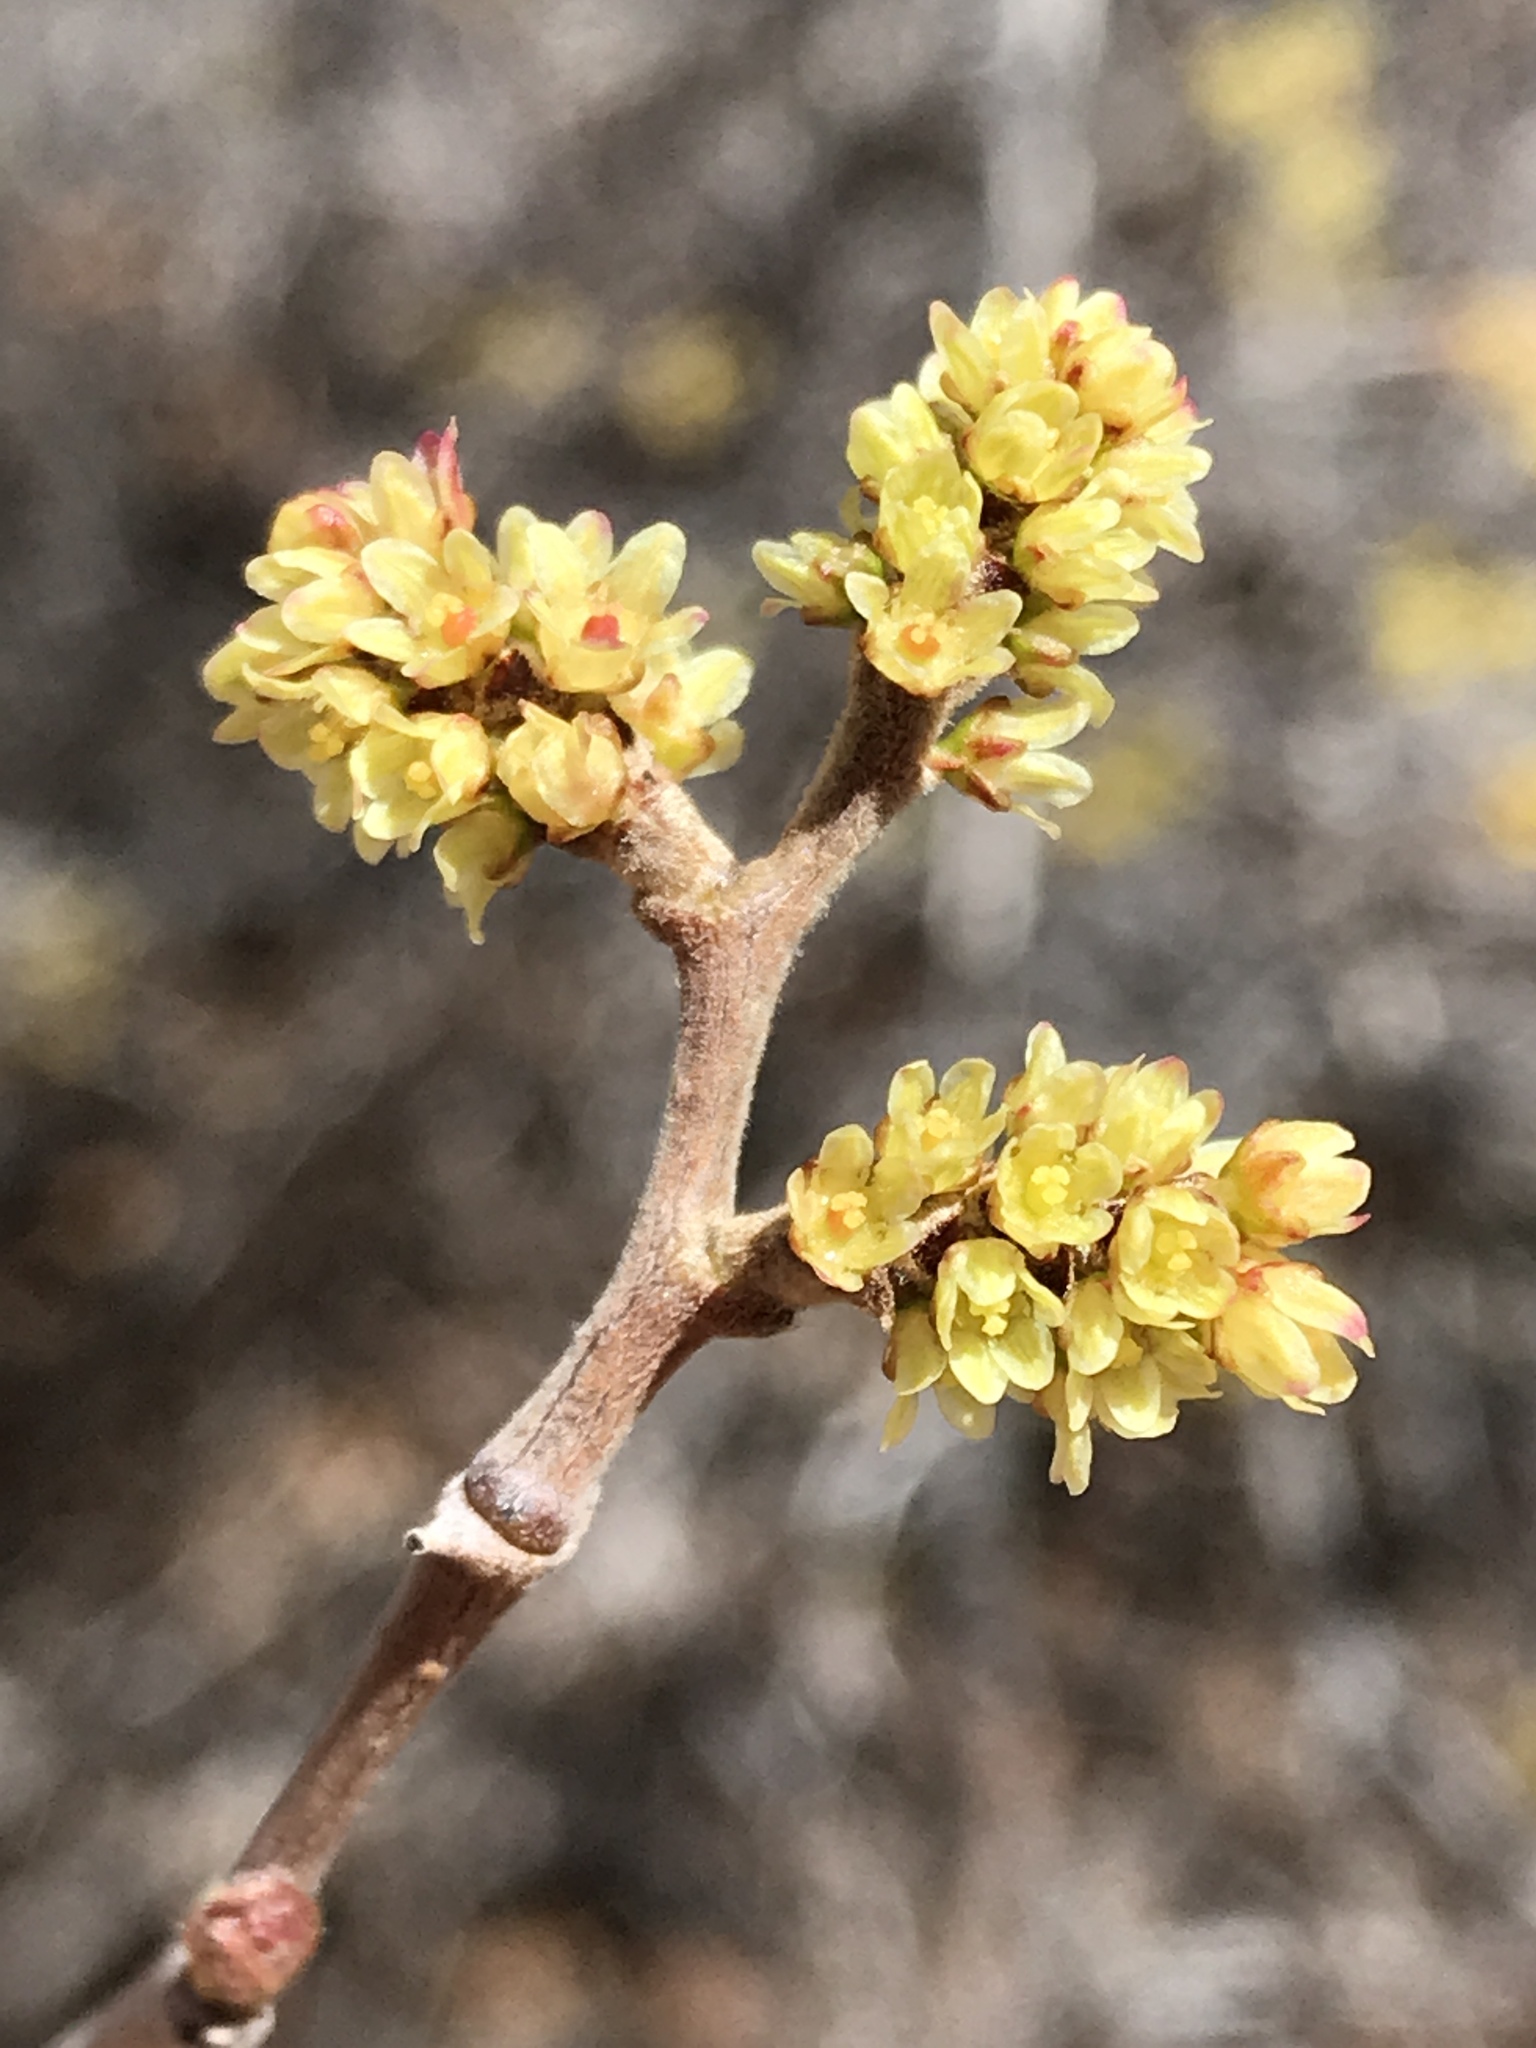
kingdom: Plantae
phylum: Tracheophyta
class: Magnoliopsida
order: Sapindales
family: Anacardiaceae
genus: Rhus
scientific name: Rhus aromatica
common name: Aromatic sumac
